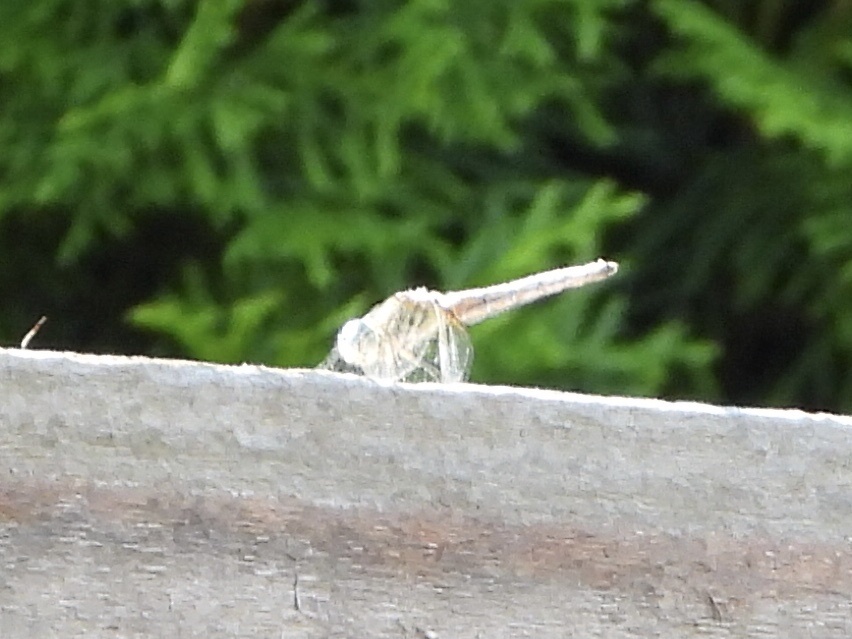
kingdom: Animalia
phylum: Arthropoda
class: Insecta
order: Odonata
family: Libellulidae
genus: Pachydiplax
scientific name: Pachydiplax longipennis
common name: Blue dasher
